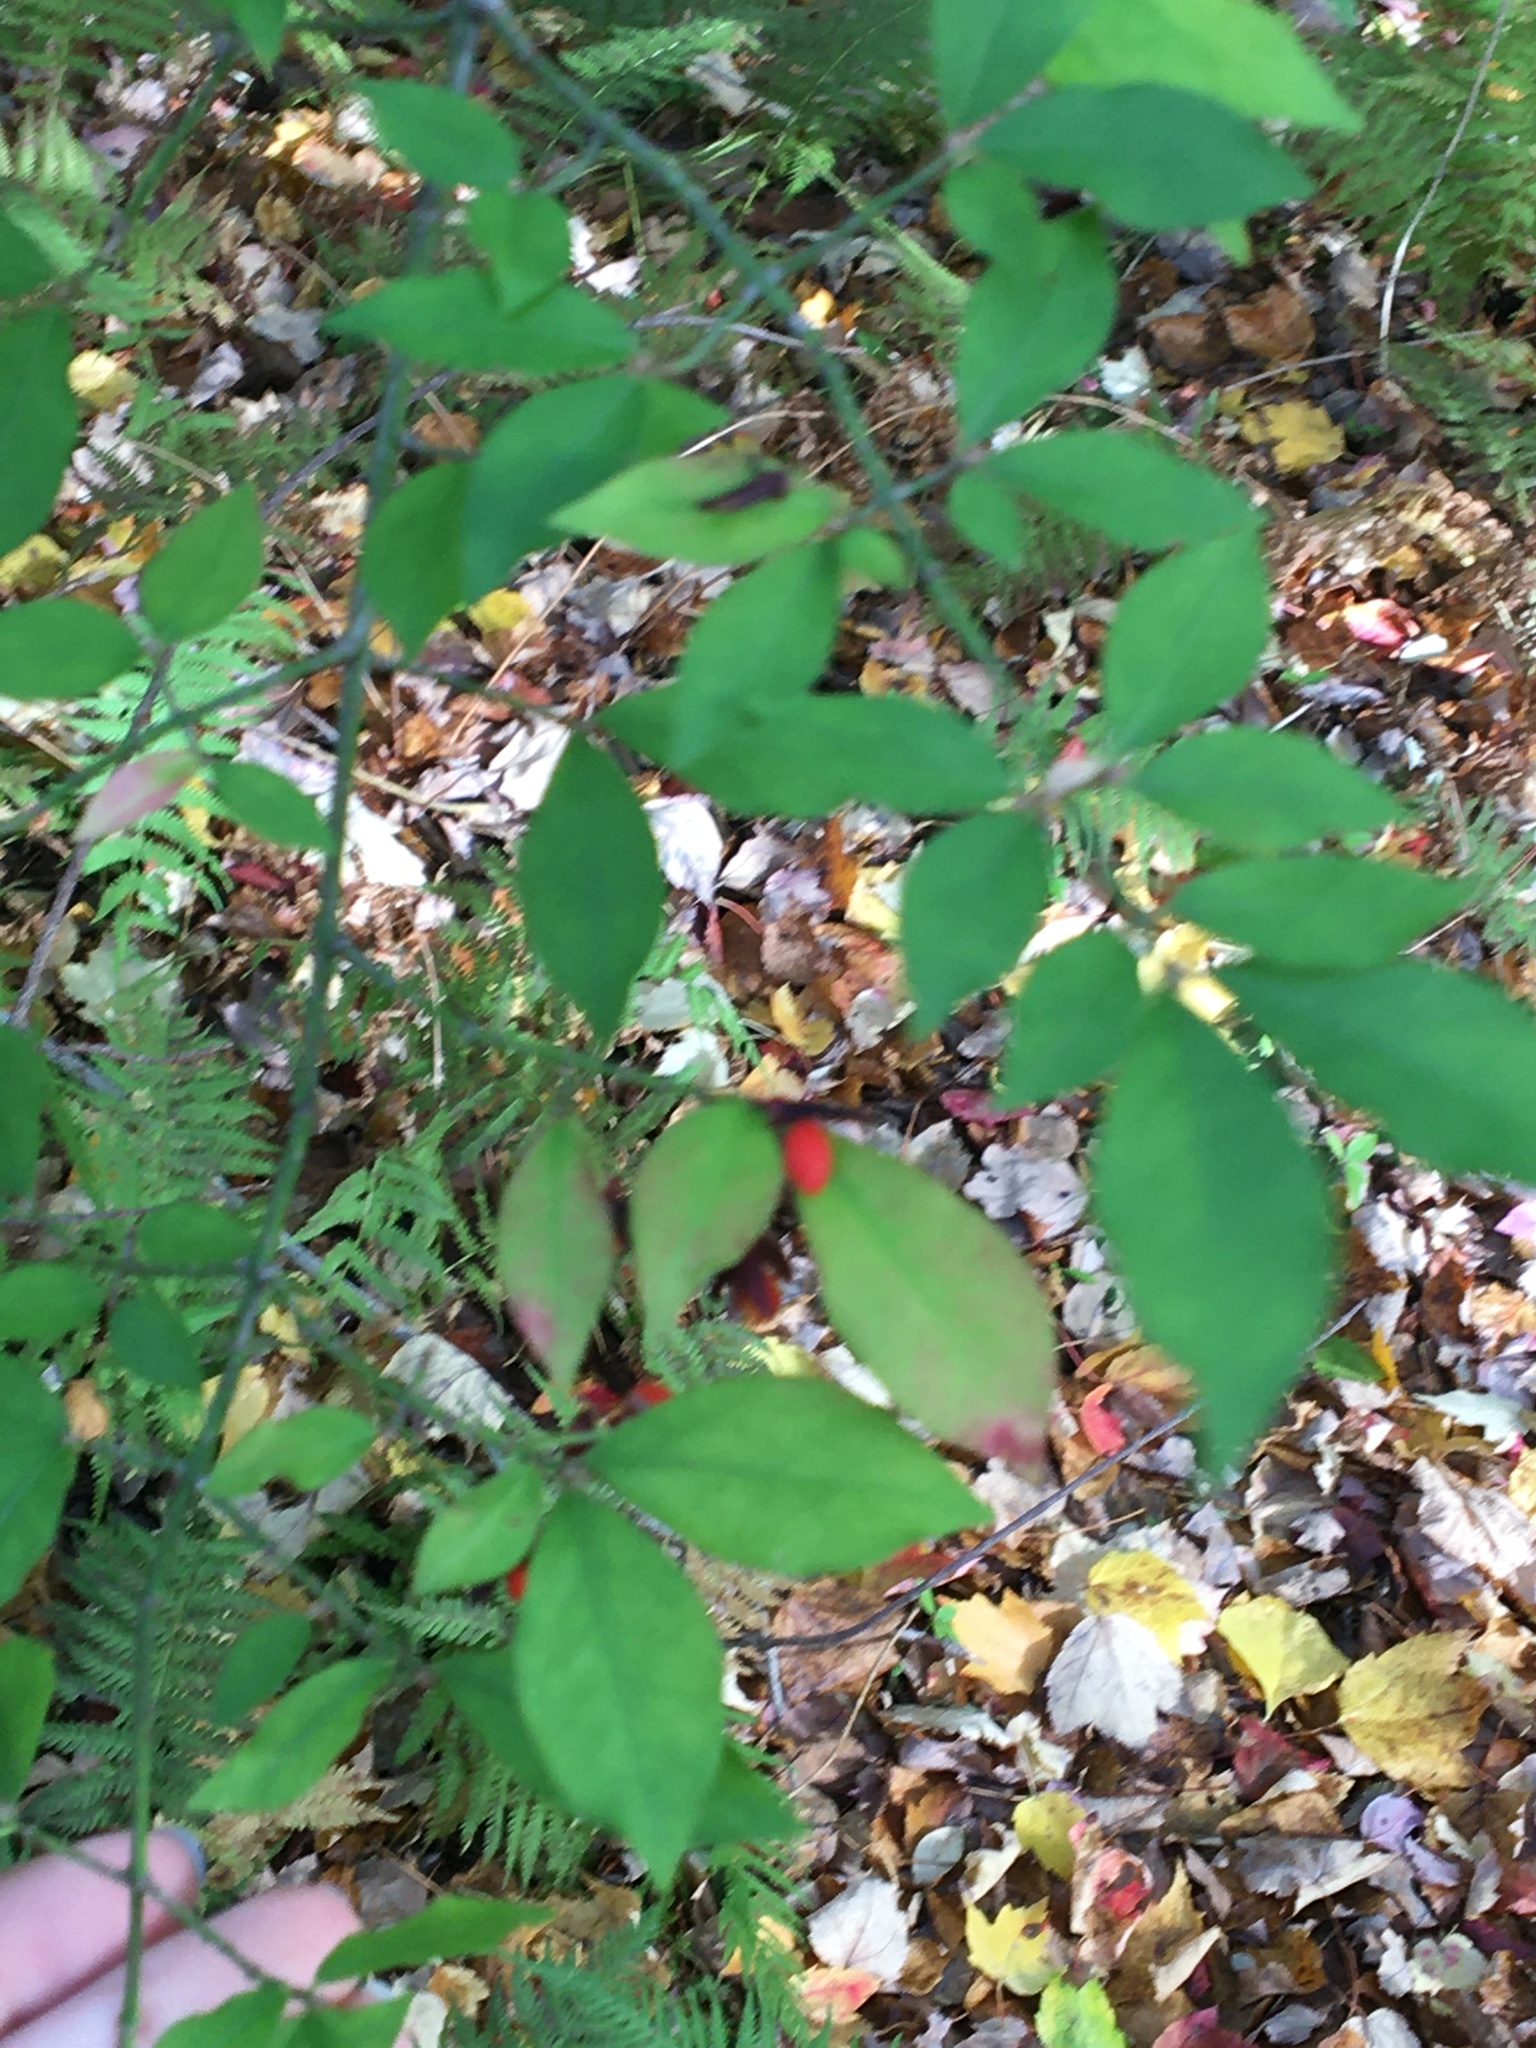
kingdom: Plantae
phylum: Tracheophyta
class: Magnoliopsida
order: Celastrales
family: Celastraceae
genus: Euonymus
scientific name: Euonymus alatus
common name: Winged euonymus
